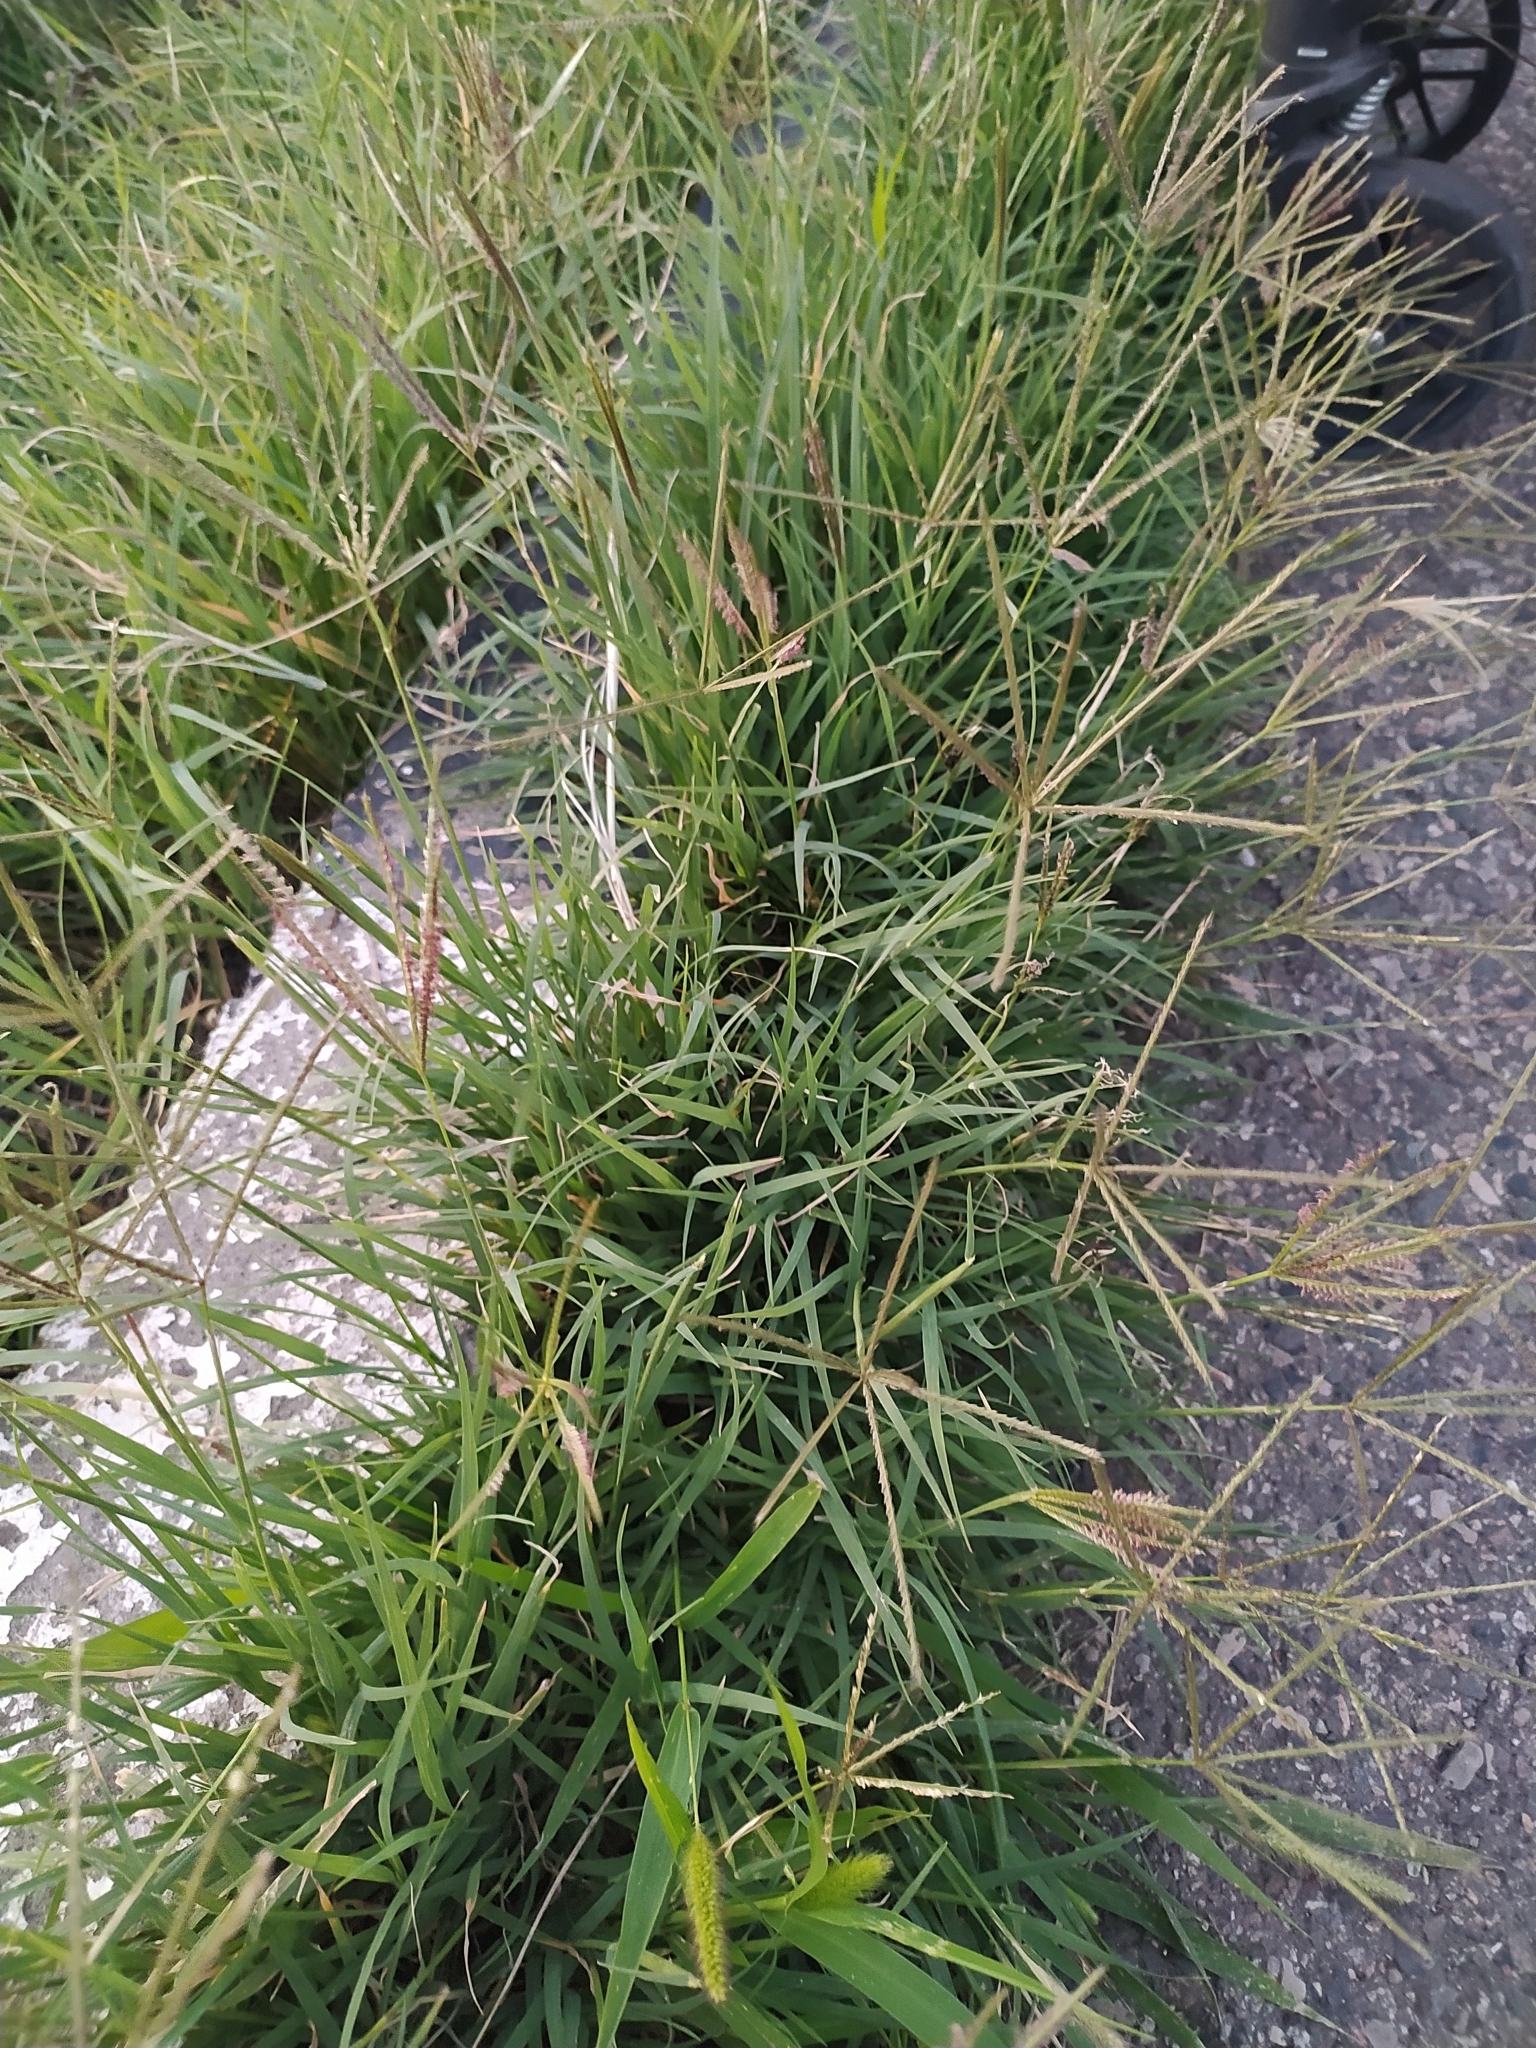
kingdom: Plantae
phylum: Tracheophyta
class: Liliopsida
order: Poales
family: Poaceae
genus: Cynodon
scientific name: Cynodon dactylon
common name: Bermuda grass
